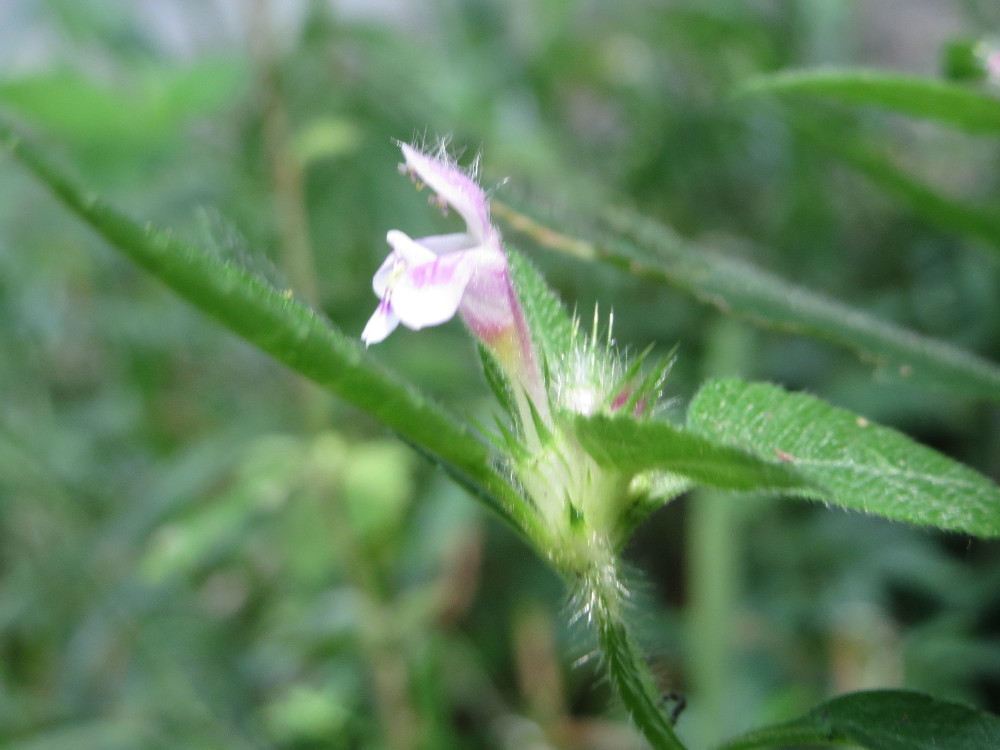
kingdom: Plantae
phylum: Tracheophyta
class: Magnoliopsida
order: Lamiales
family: Lamiaceae
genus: Galeopsis
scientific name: Galeopsis tetrahit
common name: Common hemp-nettle
